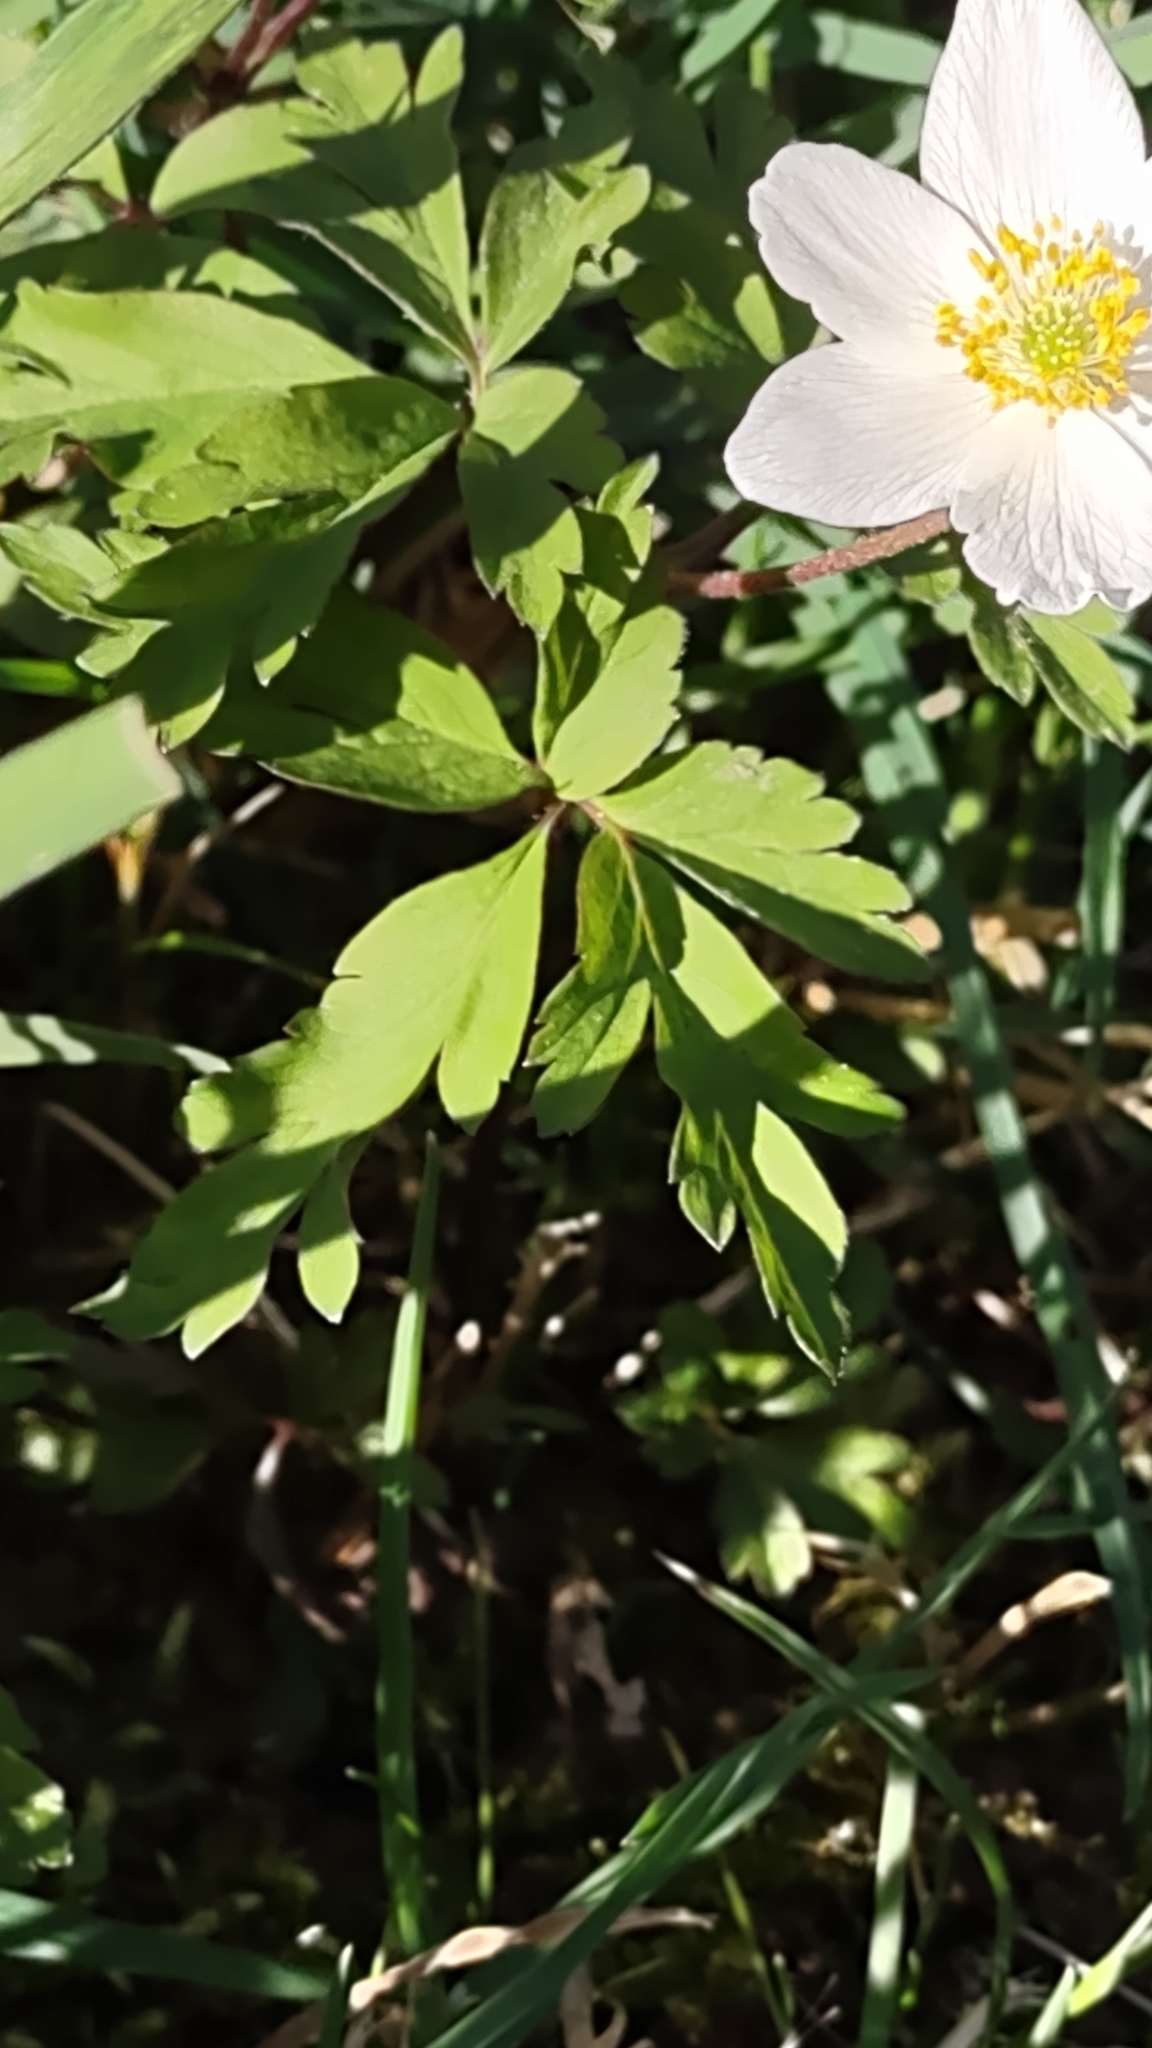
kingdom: Plantae
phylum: Tracheophyta
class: Magnoliopsida
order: Ranunculales
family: Ranunculaceae
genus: Anemone
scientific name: Anemone nemorosa
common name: Wood anemone
